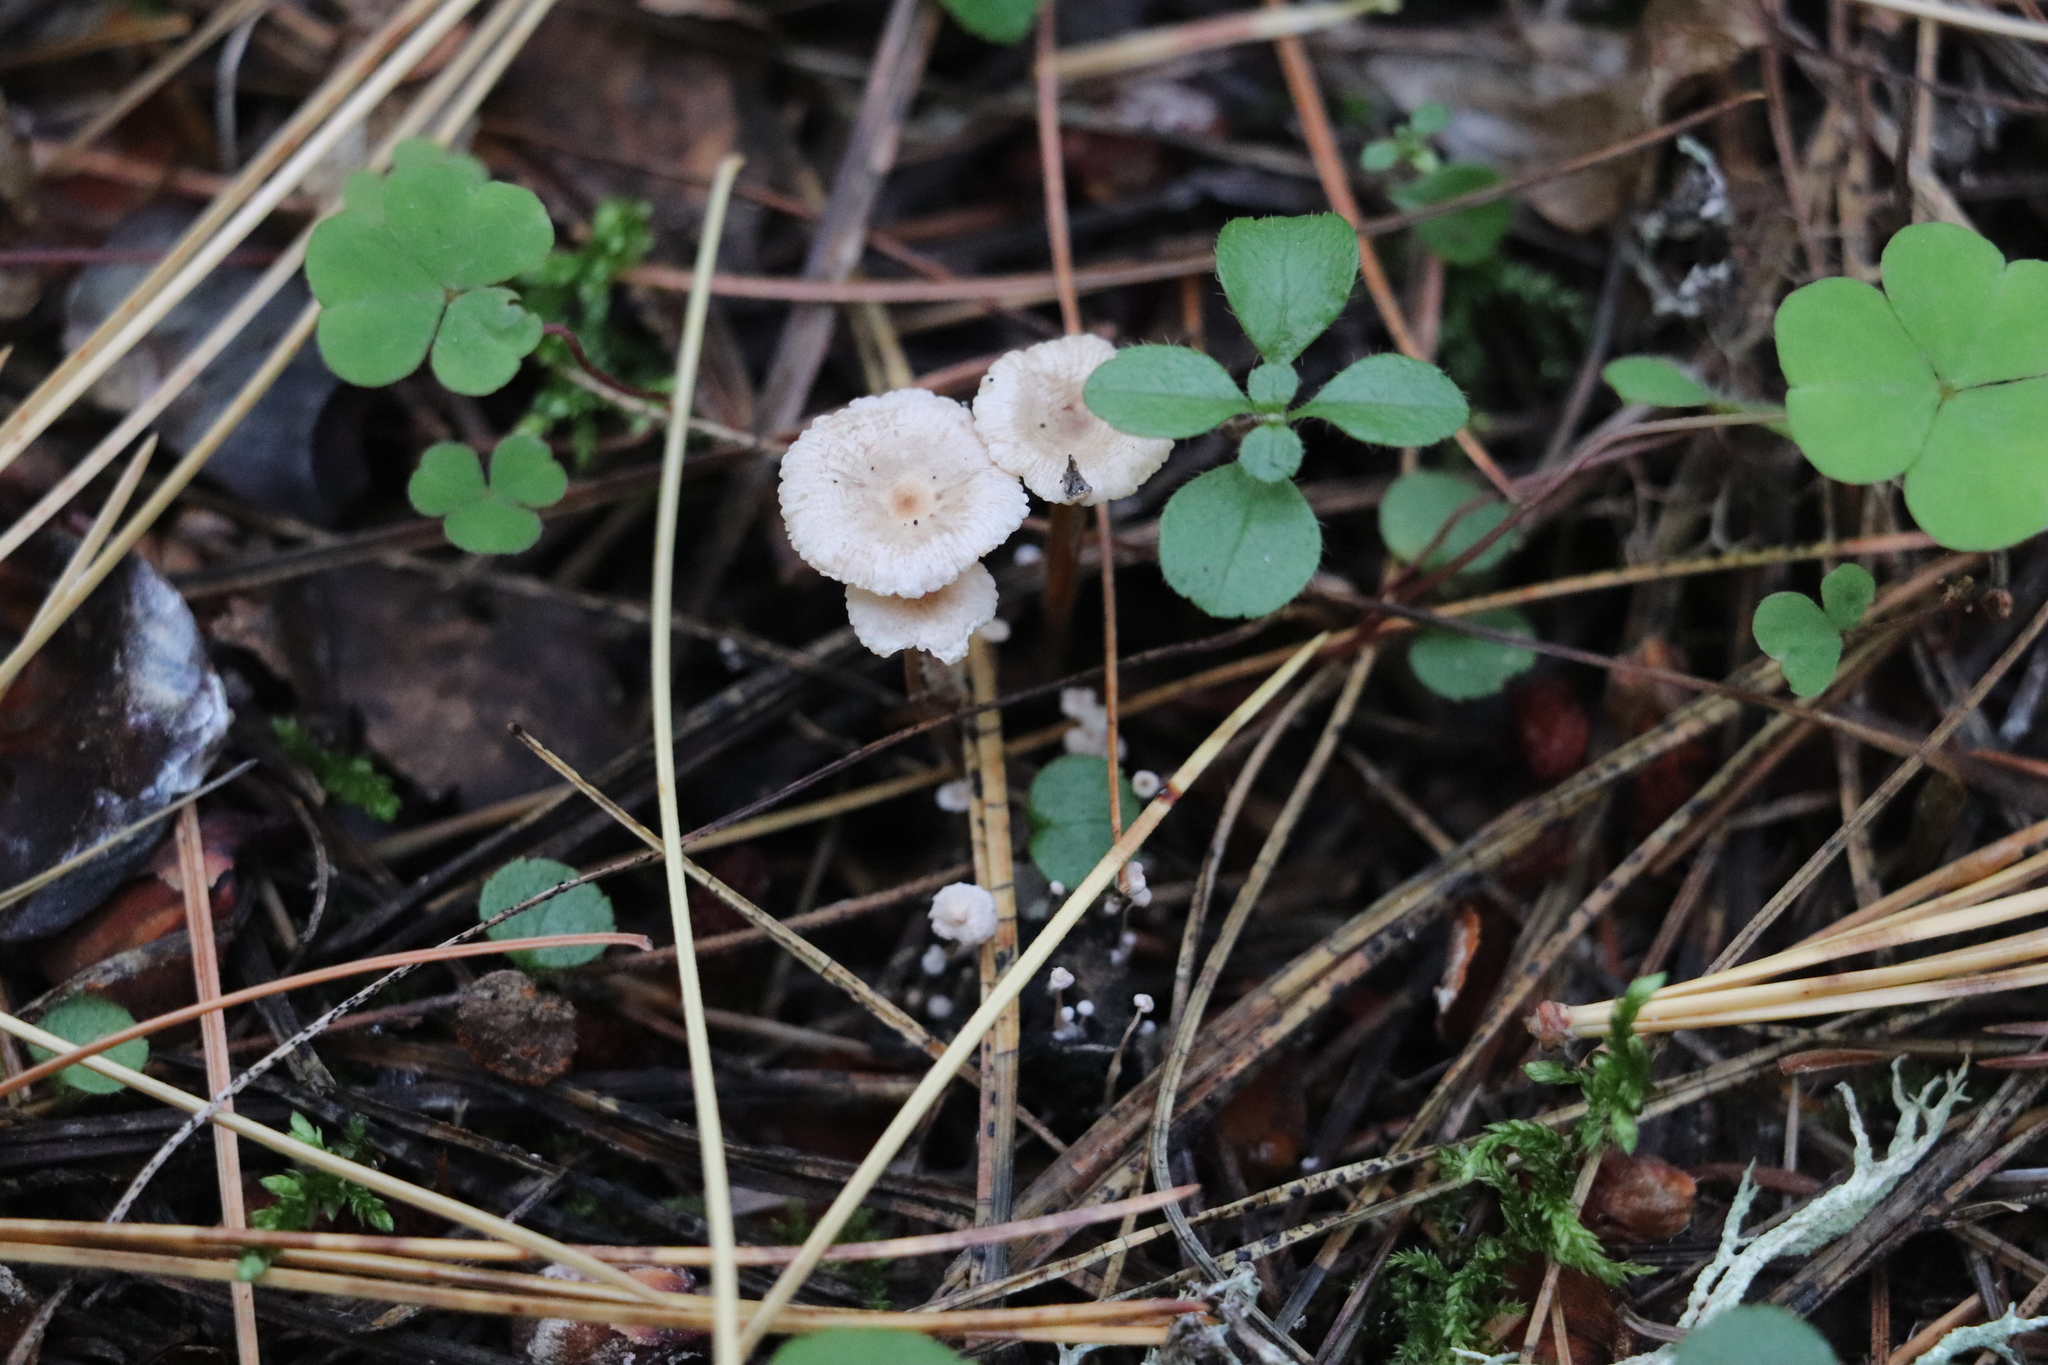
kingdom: Fungi
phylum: Basidiomycota
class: Agaricomycetes
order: Agaricales
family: Tricholomataceae
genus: Collybia
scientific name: Collybia cirrhata
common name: Piggyback shanklet
